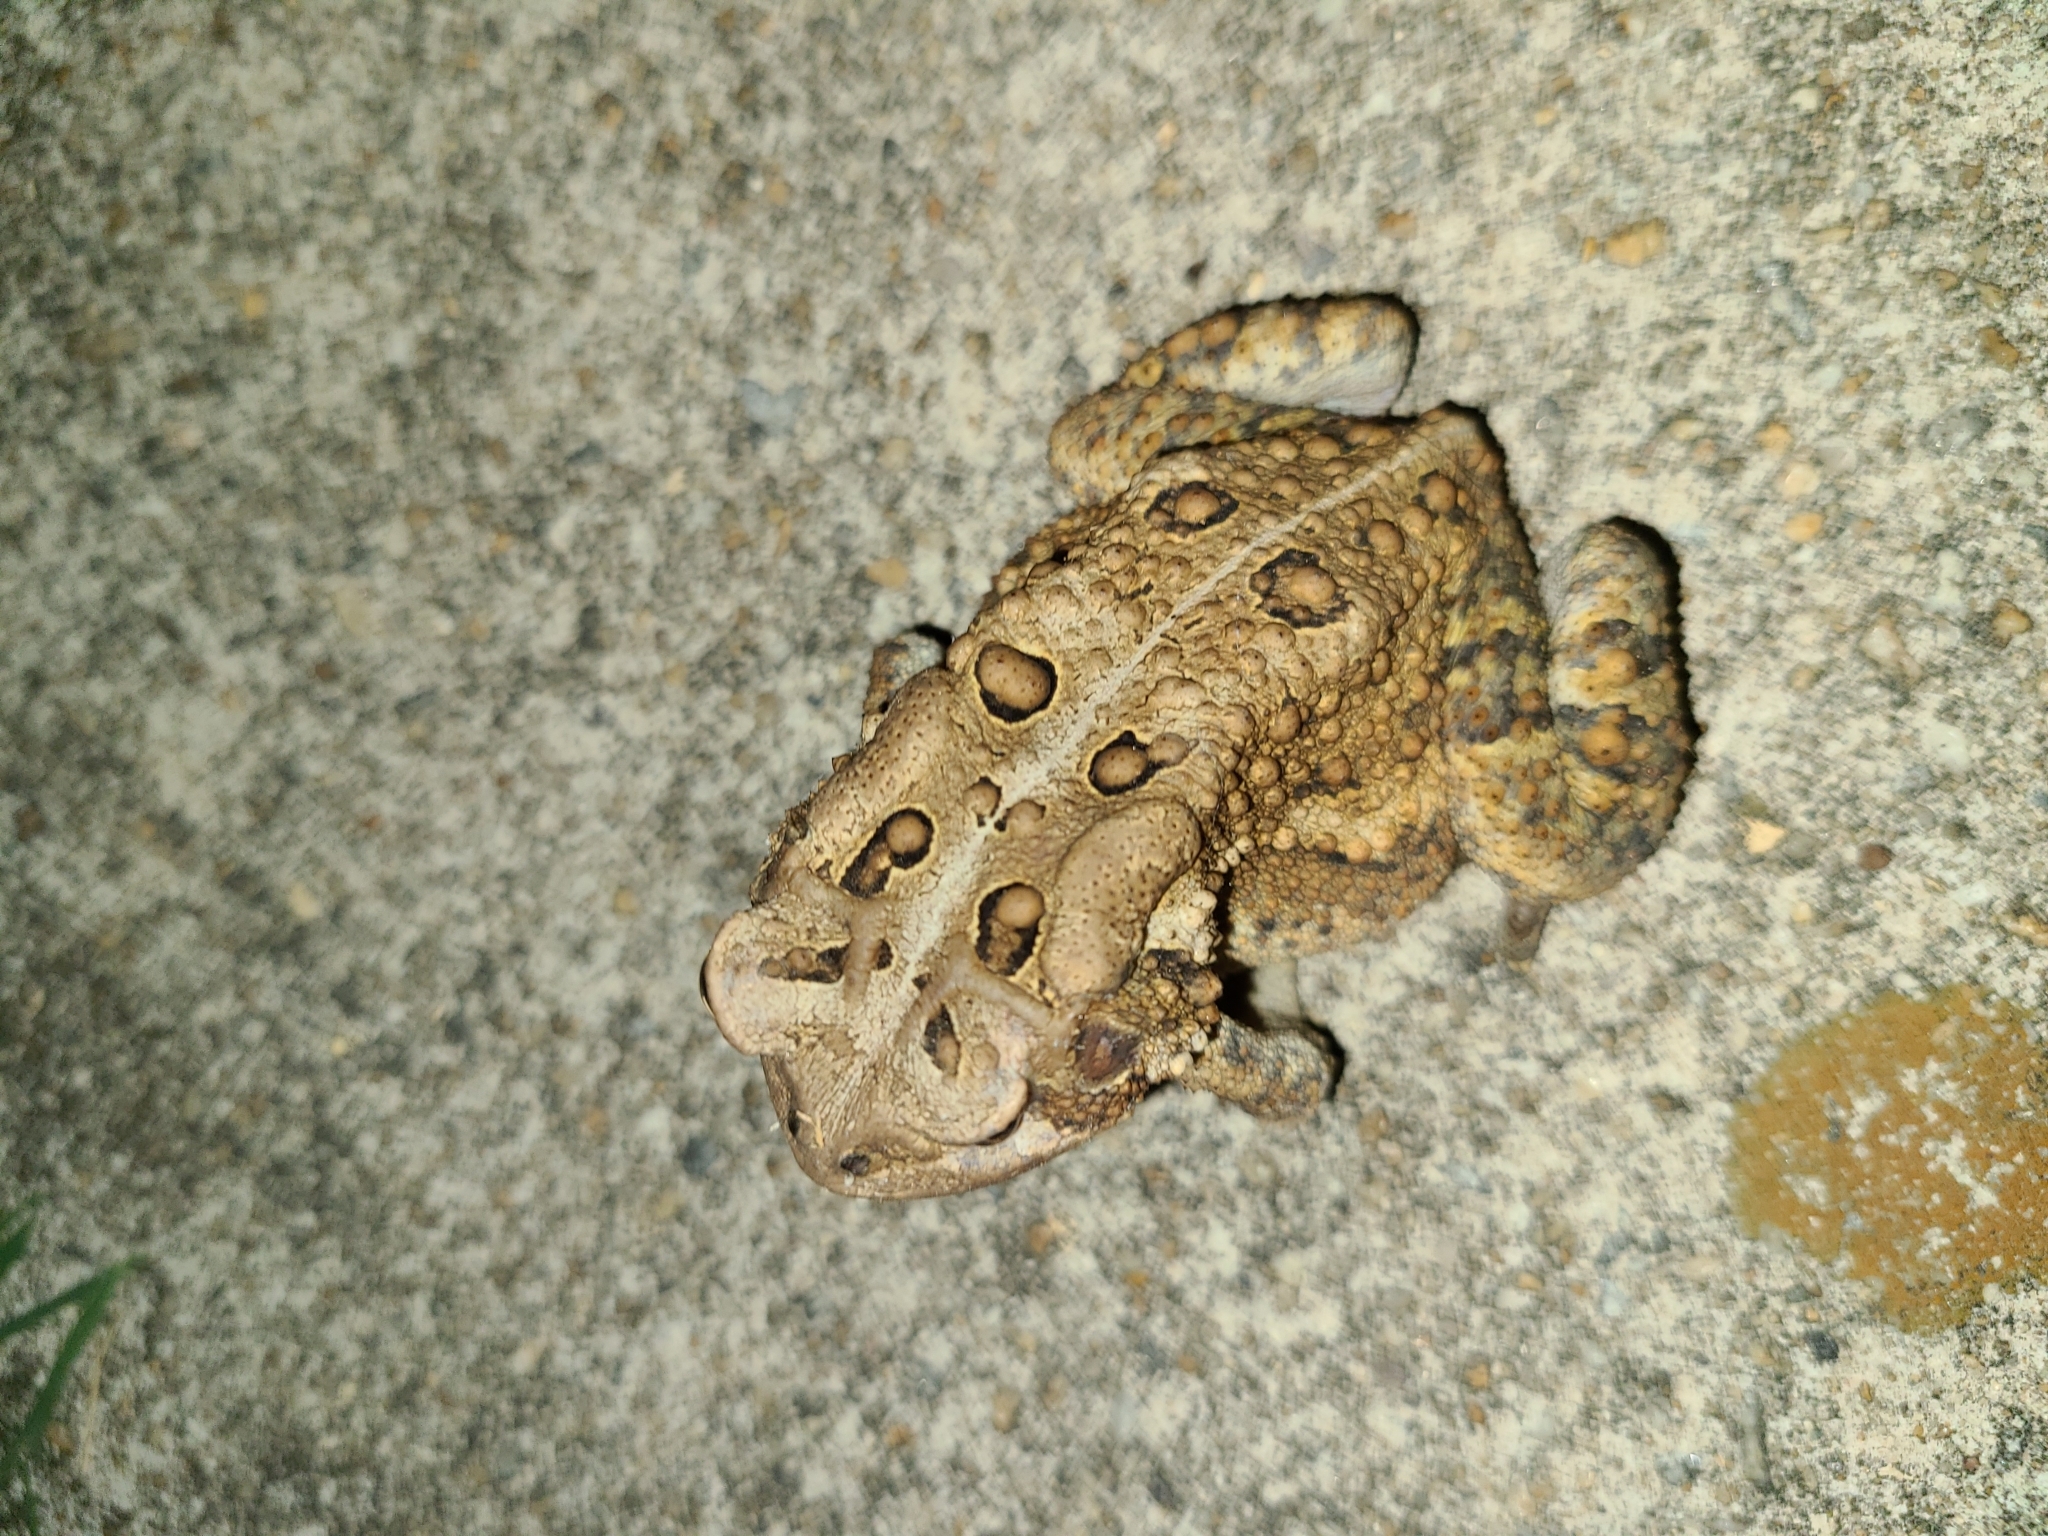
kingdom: Animalia
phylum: Chordata
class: Amphibia
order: Anura
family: Bufonidae
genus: Anaxyrus
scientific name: Anaxyrus americanus
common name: American toad
